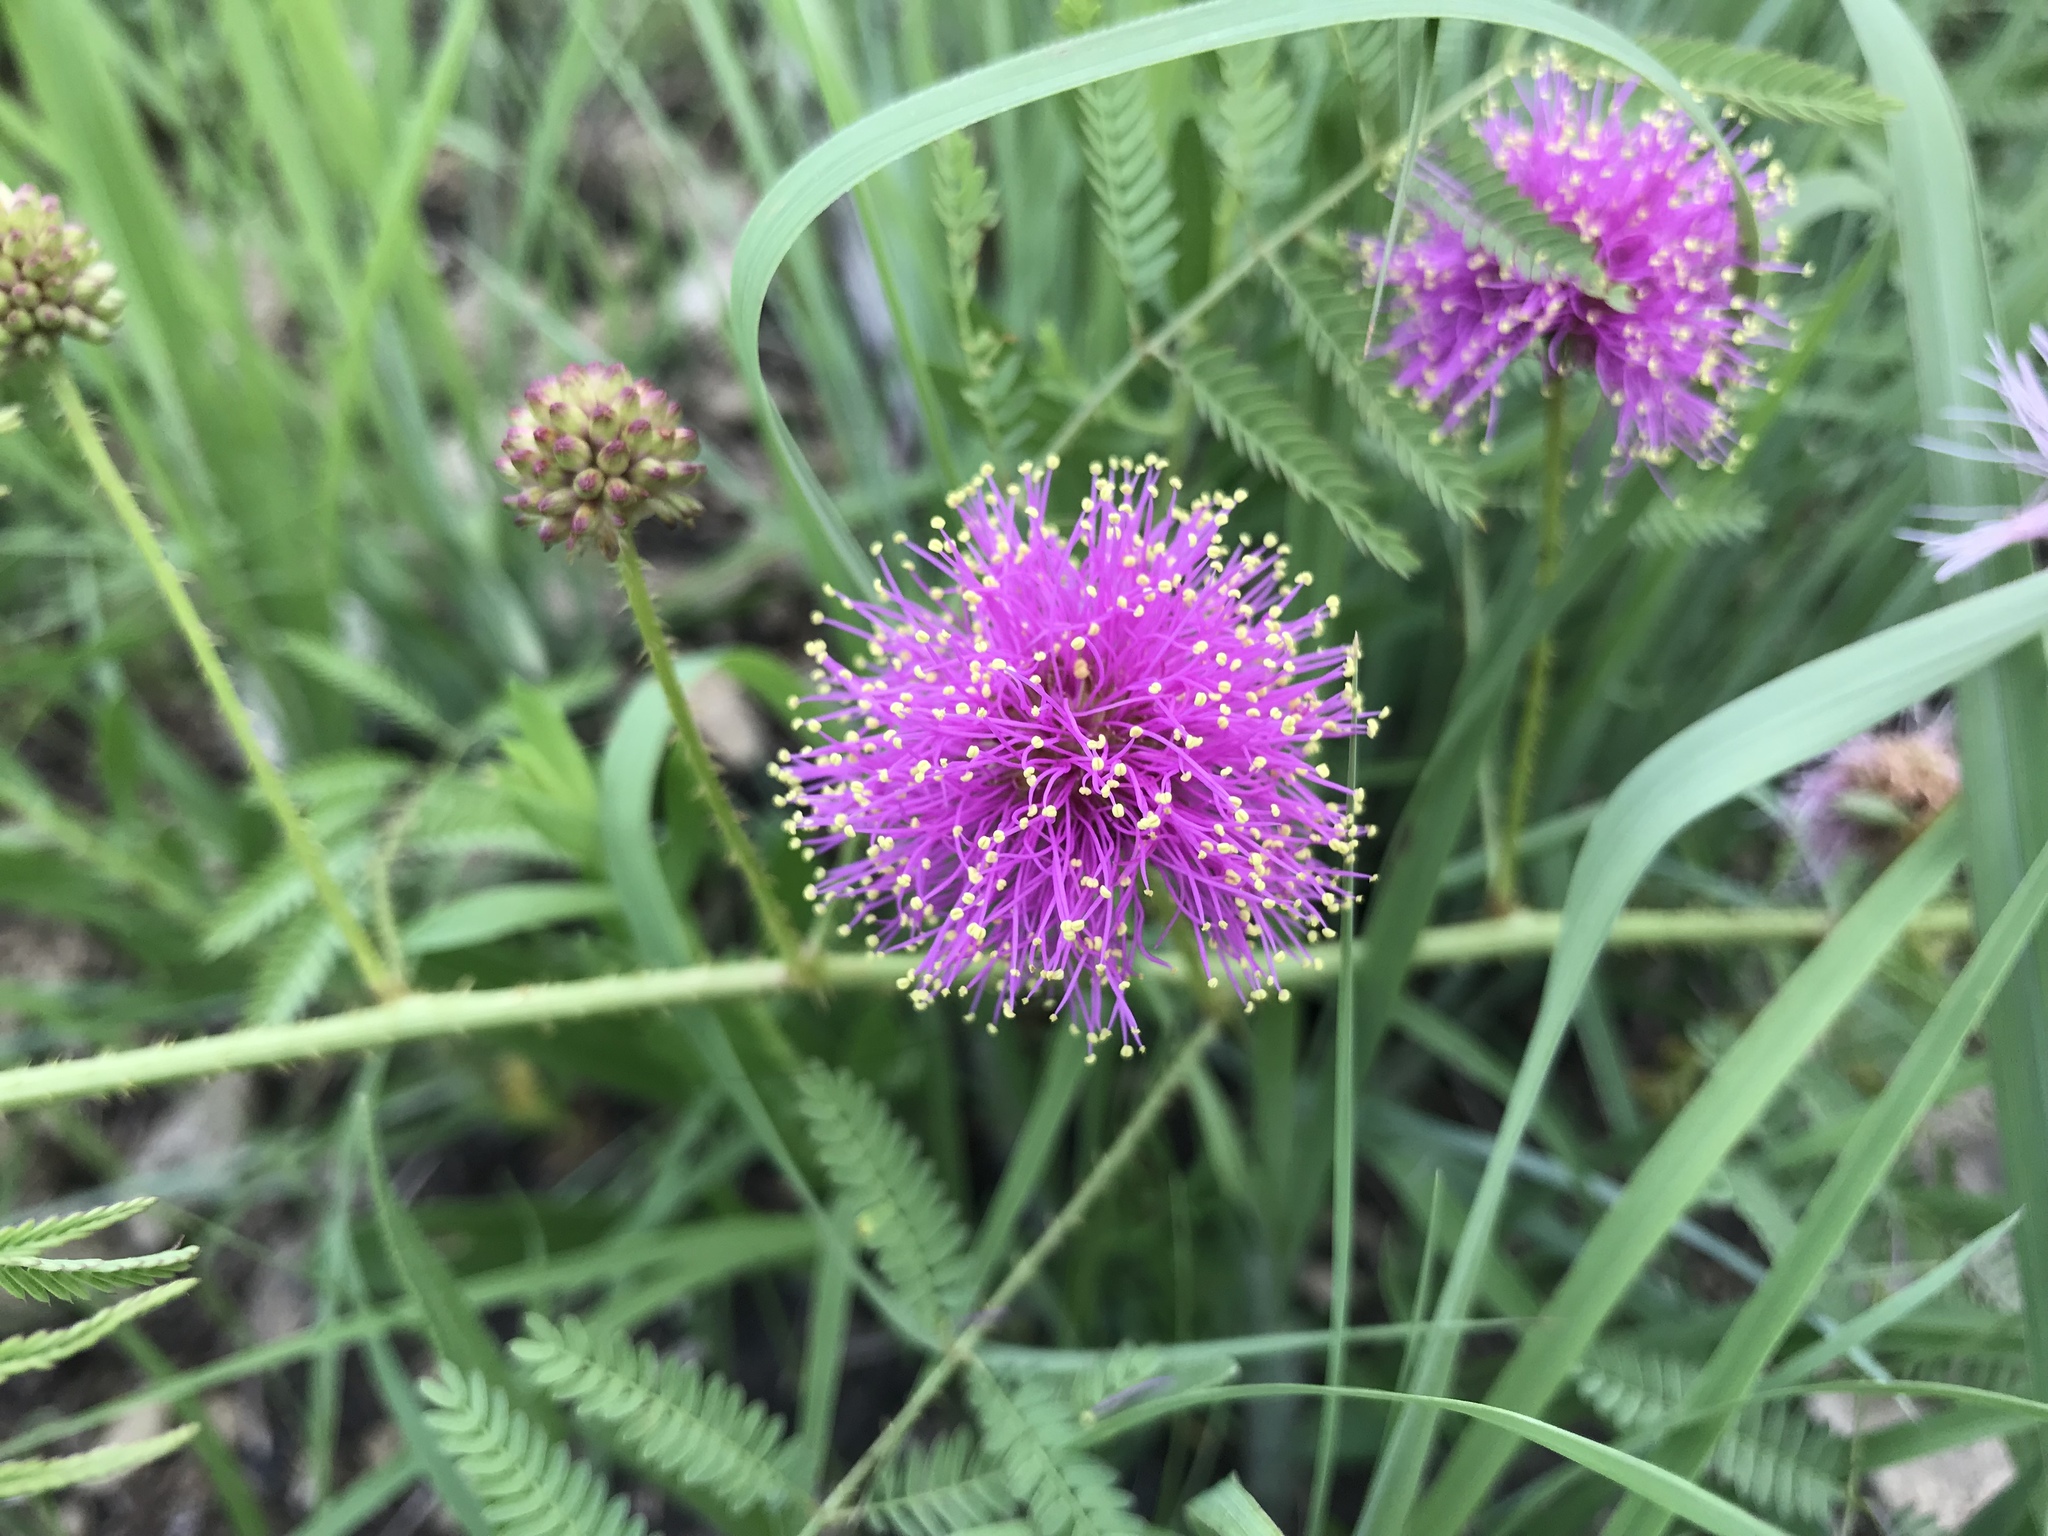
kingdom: Plantae
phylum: Tracheophyta
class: Magnoliopsida
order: Fabales
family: Fabaceae
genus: Mimosa
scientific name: Mimosa quadrivalvis
